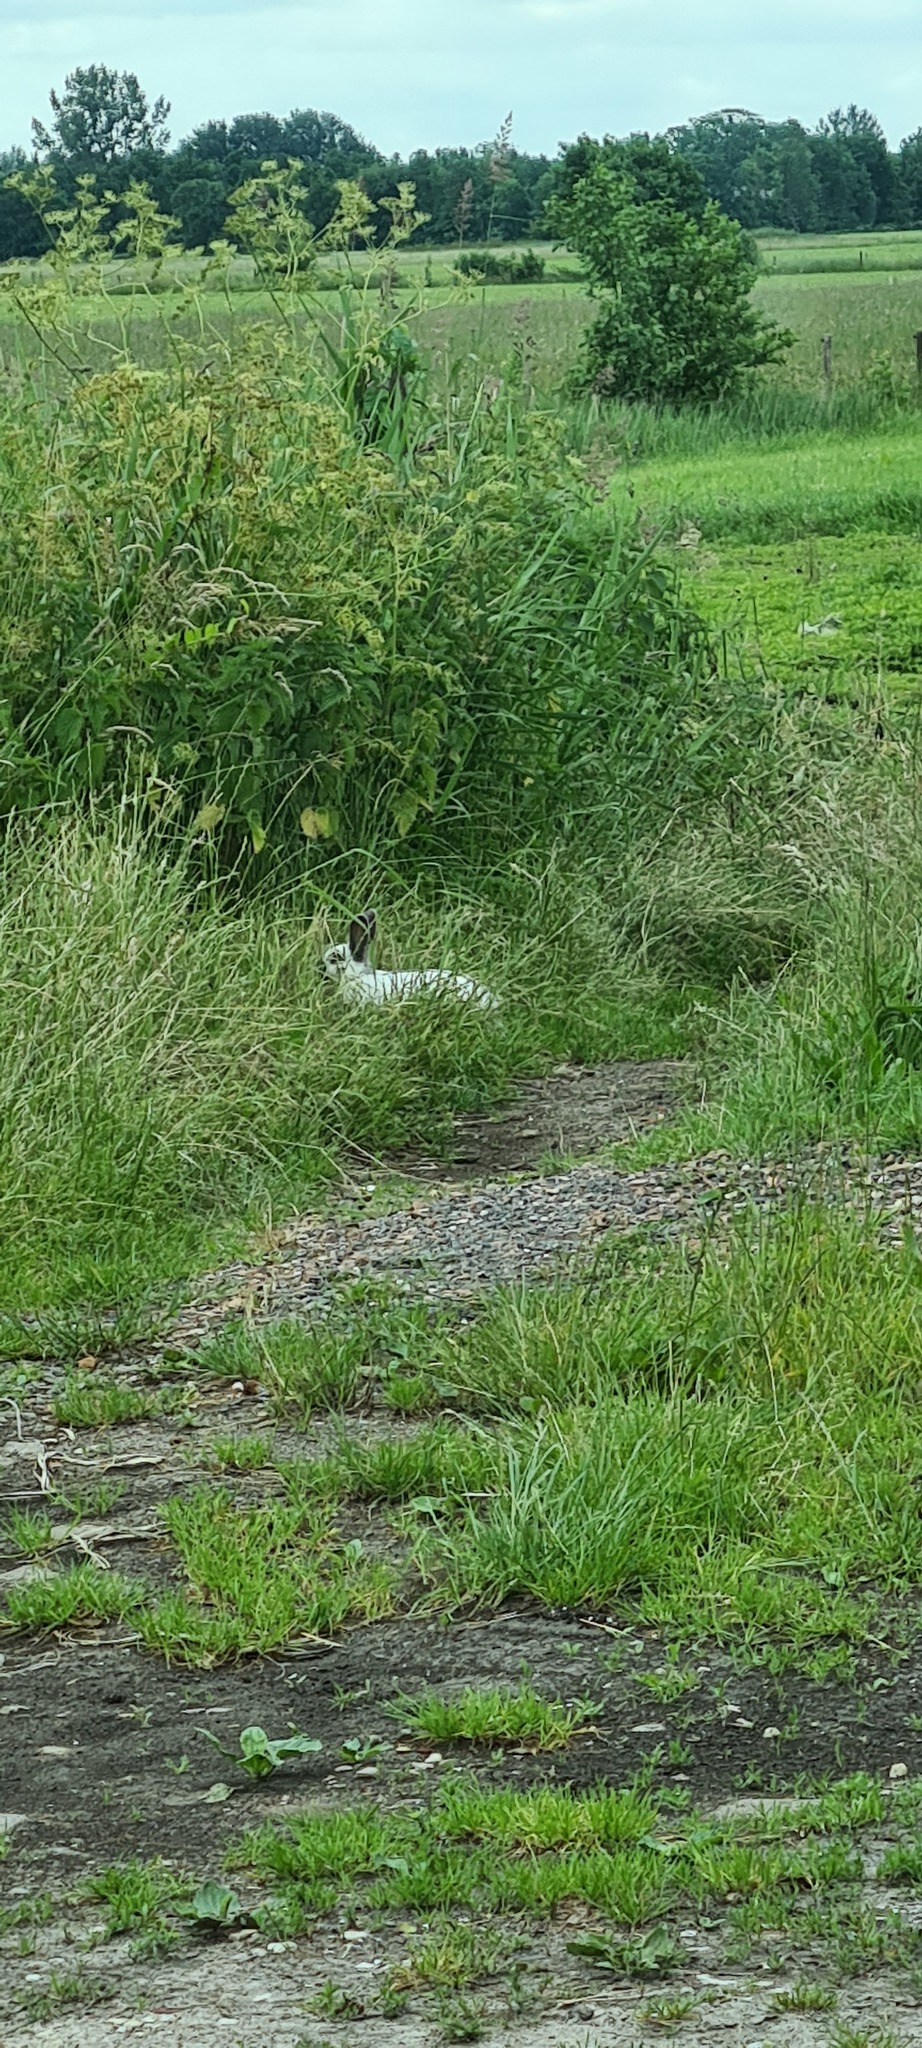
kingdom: Animalia
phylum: Chordata
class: Mammalia
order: Lagomorpha
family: Leporidae
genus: Oryctolagus
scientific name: Oryctolagus cuniculus
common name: European rabbit
